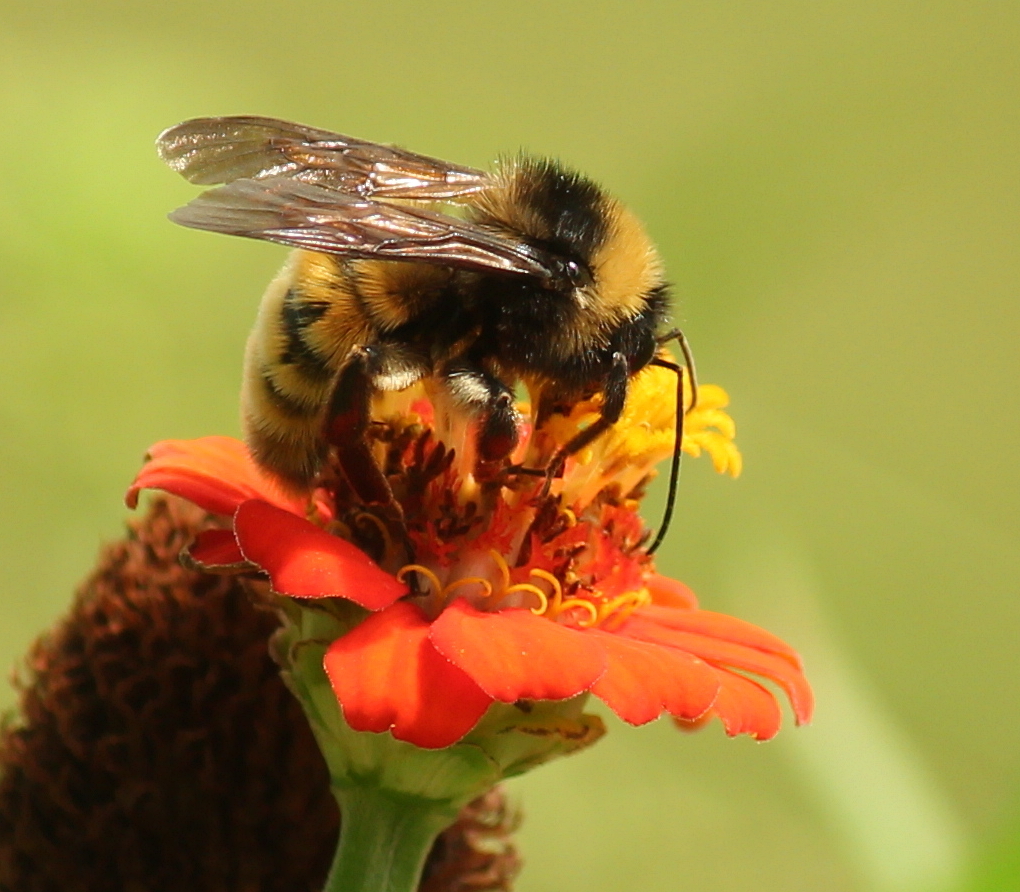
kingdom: Animalia
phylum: Arthropoda
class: Insecta
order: Hymenoptera
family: Apidae
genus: Bombus
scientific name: Bombus pensylvanicus
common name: Bumble bee
